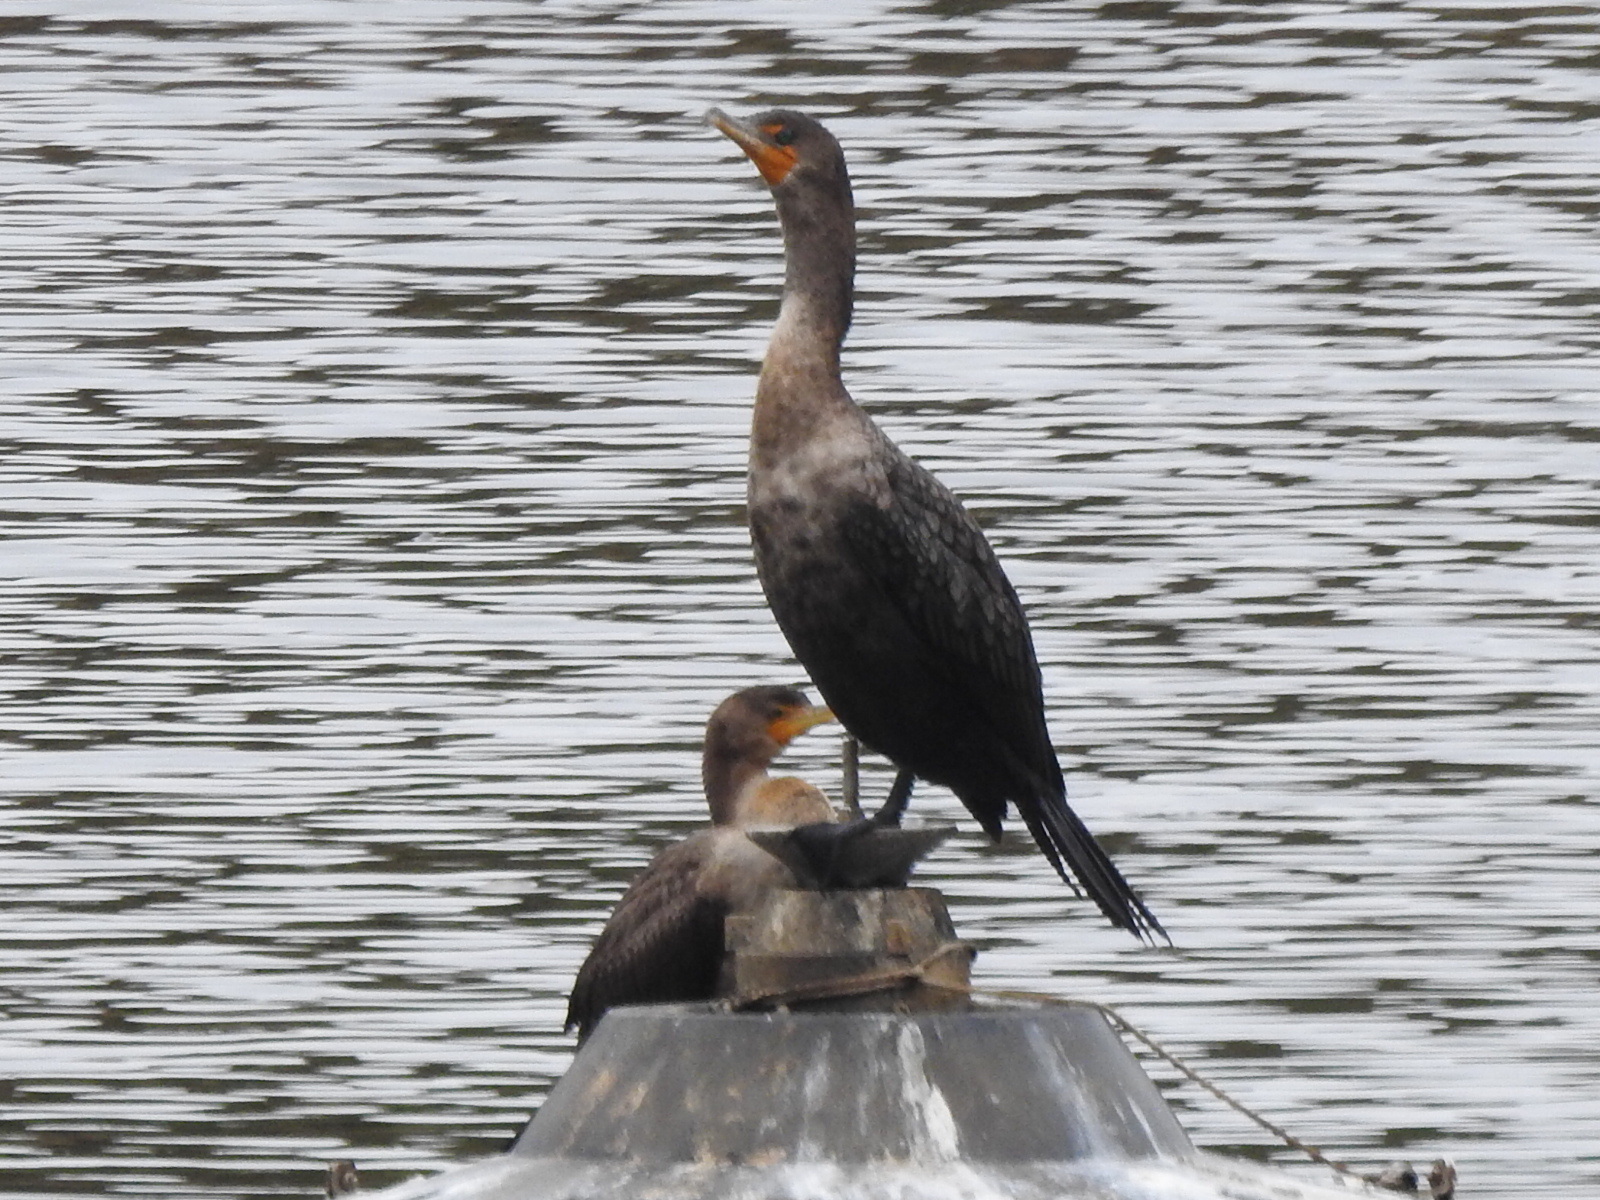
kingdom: Animalia
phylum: Chordata
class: Aves
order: Suliformes
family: Phalacrocoracidae
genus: Phalacrocorax
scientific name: Phalacrocorax auritus
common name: Double-crested cormorant
